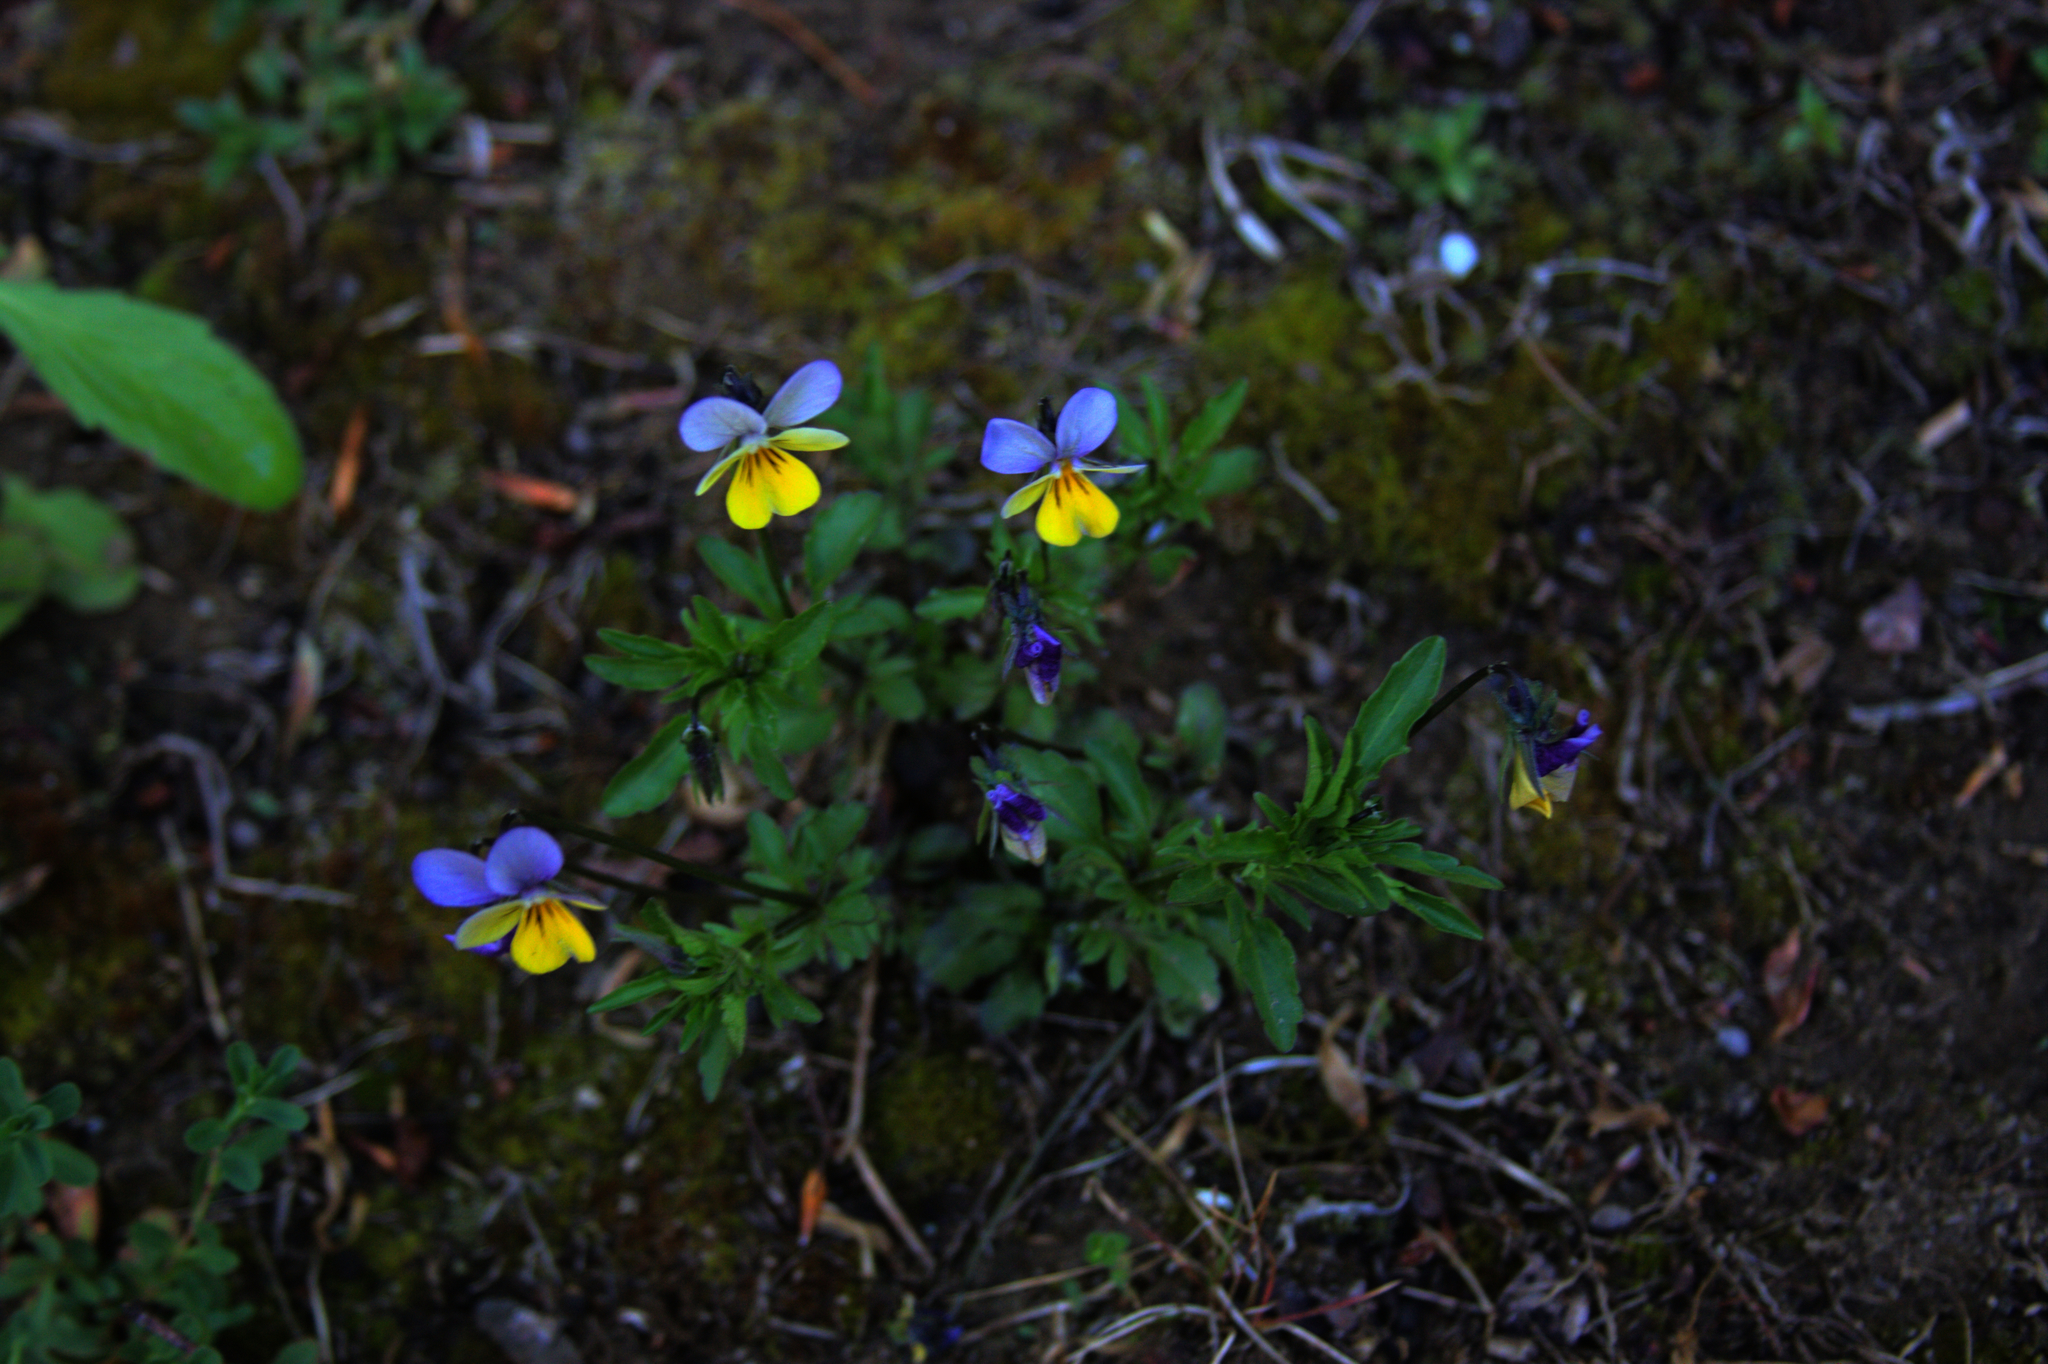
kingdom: Plantae
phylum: Tracheophyta
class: Magnoliopsida
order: Malpighiales
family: Violaceae
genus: Viola
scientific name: Viola tricolor
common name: Pansy
